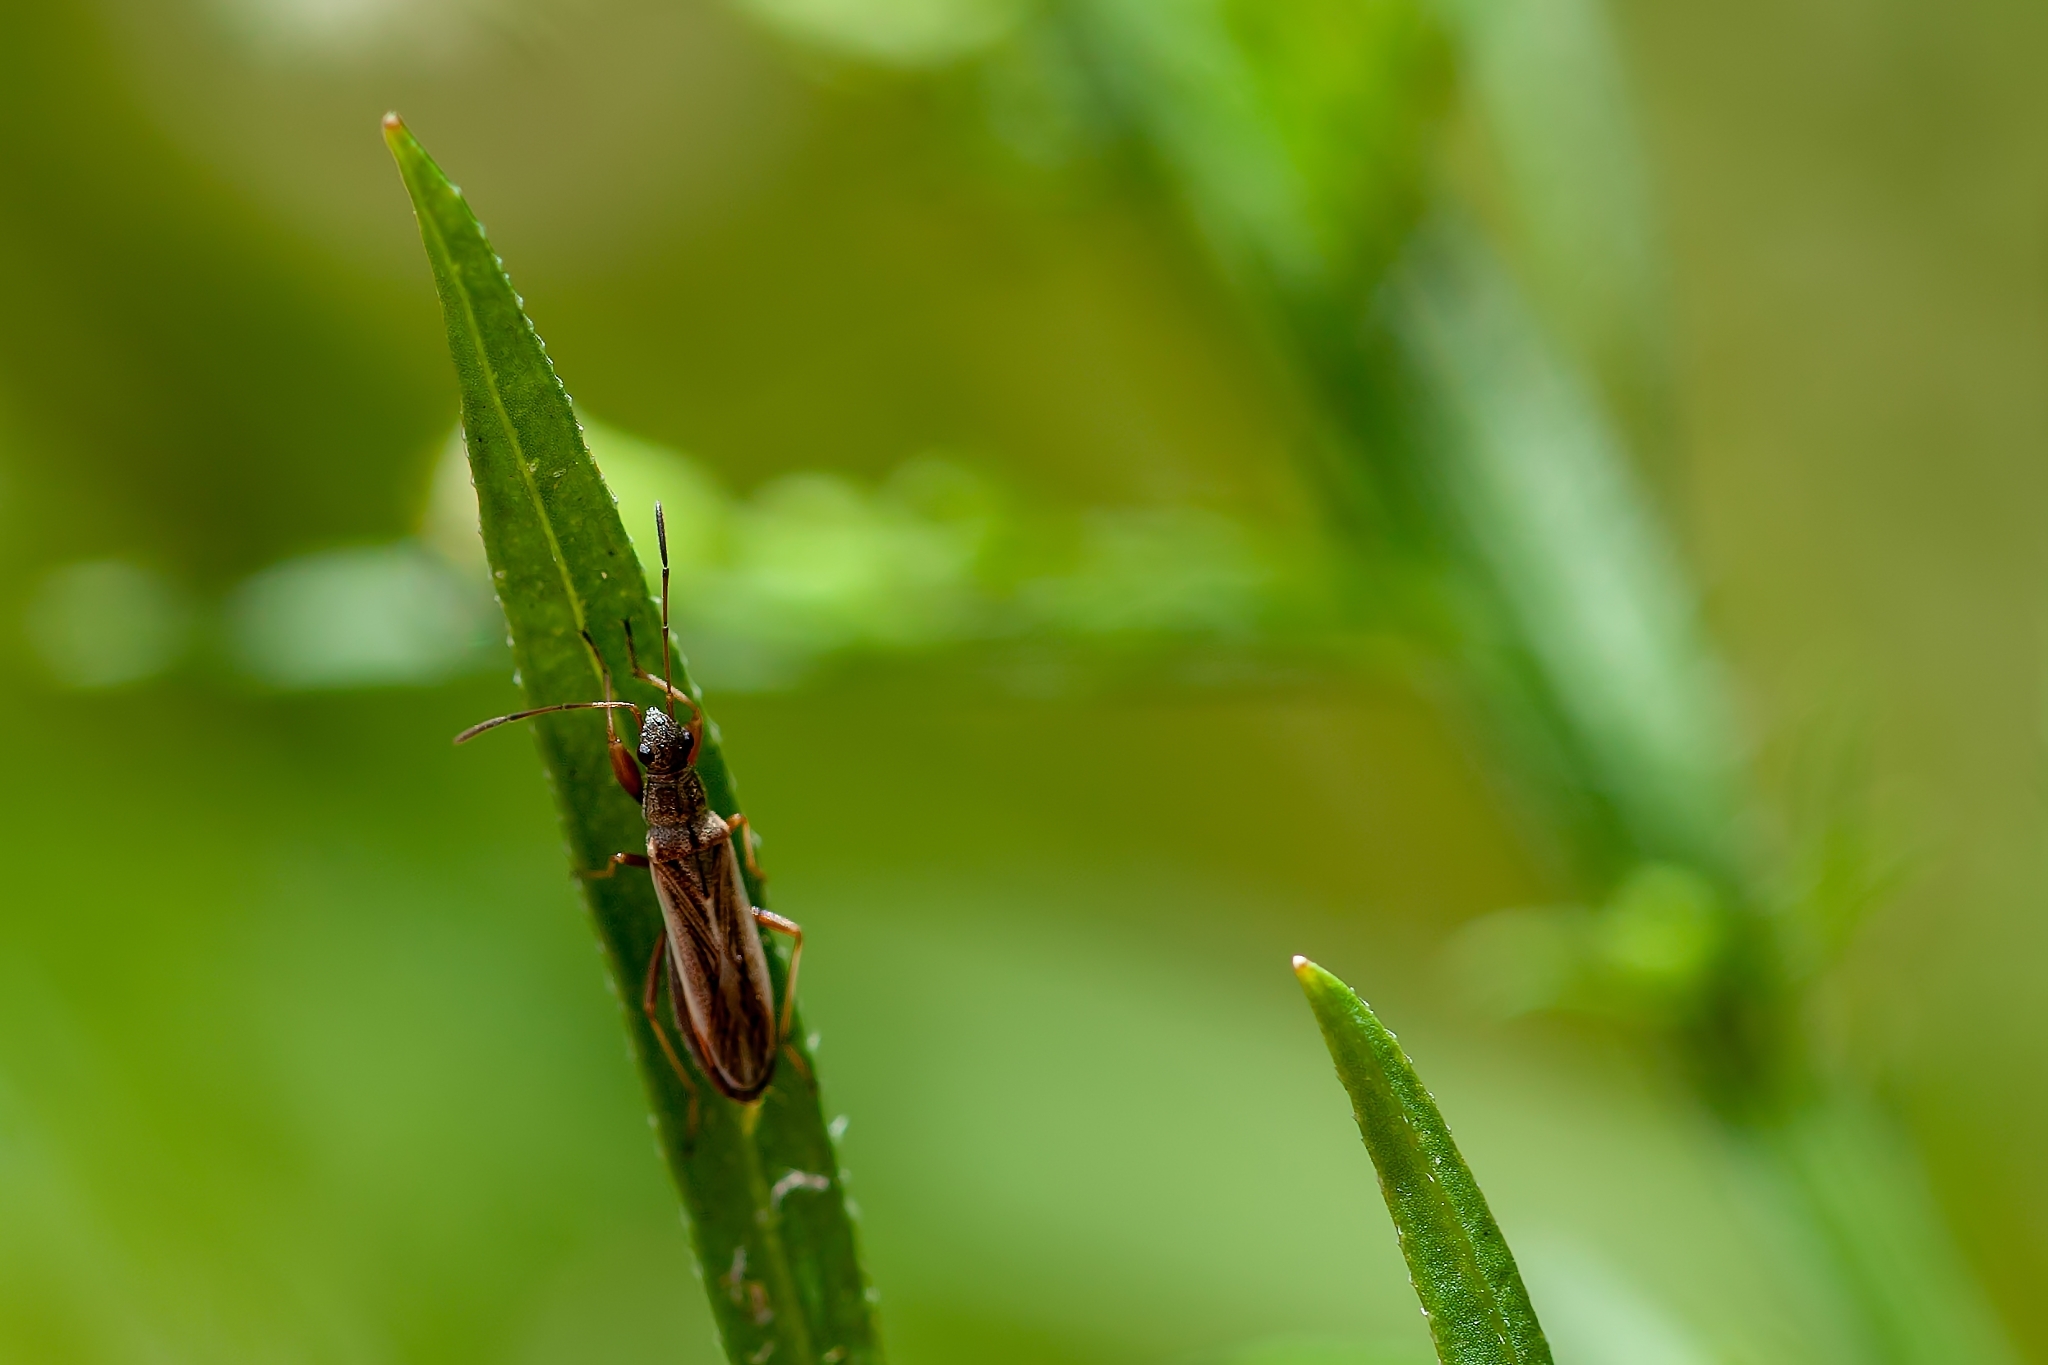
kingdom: Animalia
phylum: Arthropoda
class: Insecta
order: Hemiptera
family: Rhyparochromidae
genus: Paromius
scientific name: Paromius longulus
